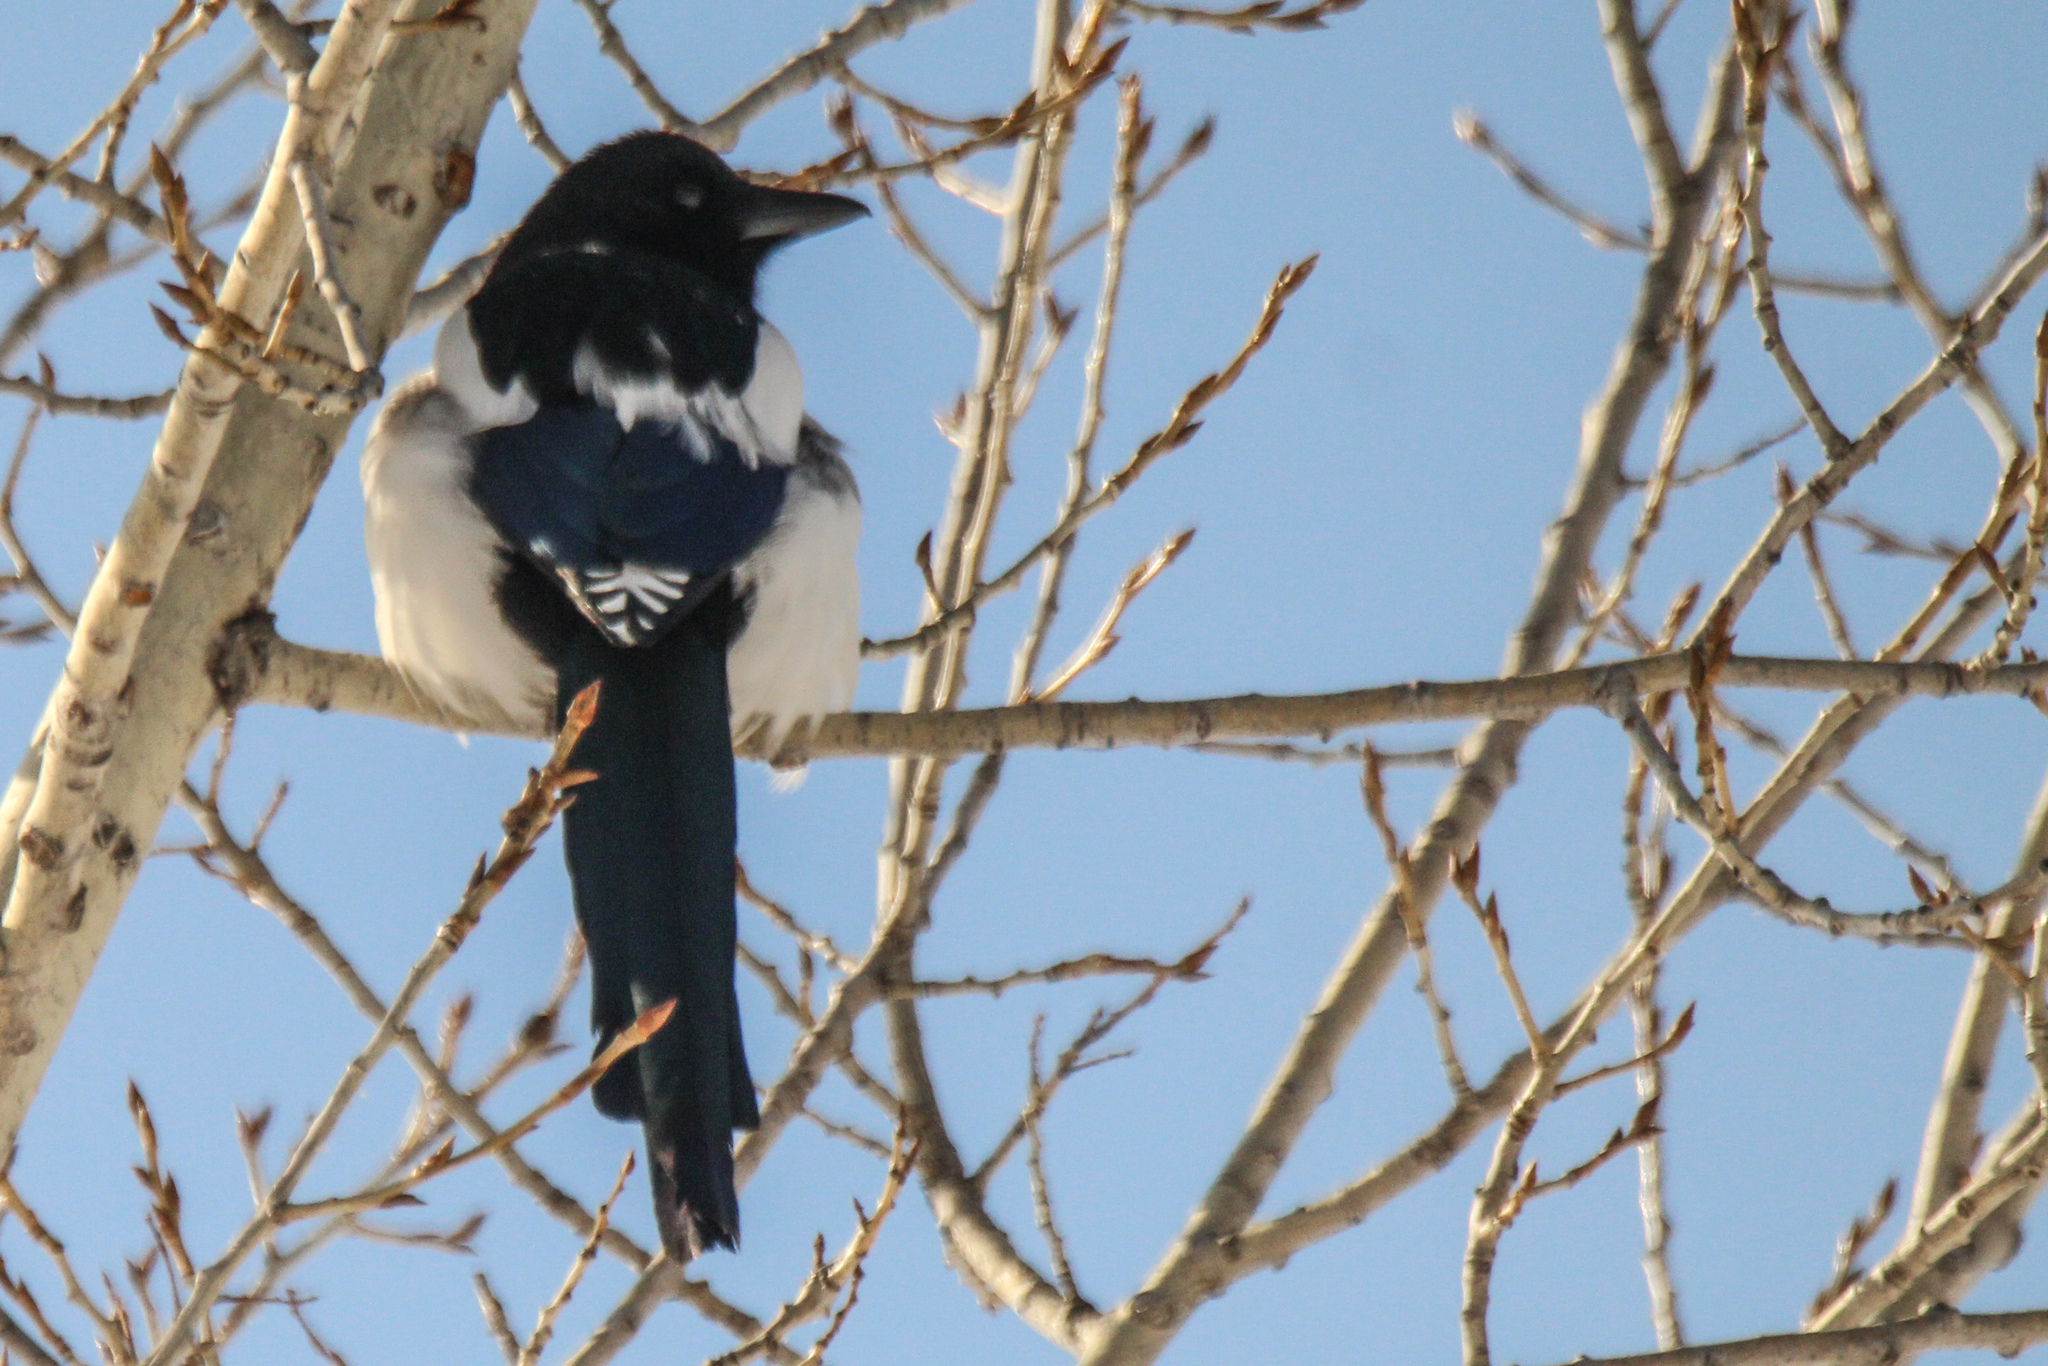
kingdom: Animalia
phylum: Chordata
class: Aves
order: Passeriformes
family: Corvidae
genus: Pica
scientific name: Pica pica
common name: Eurasian magpie
